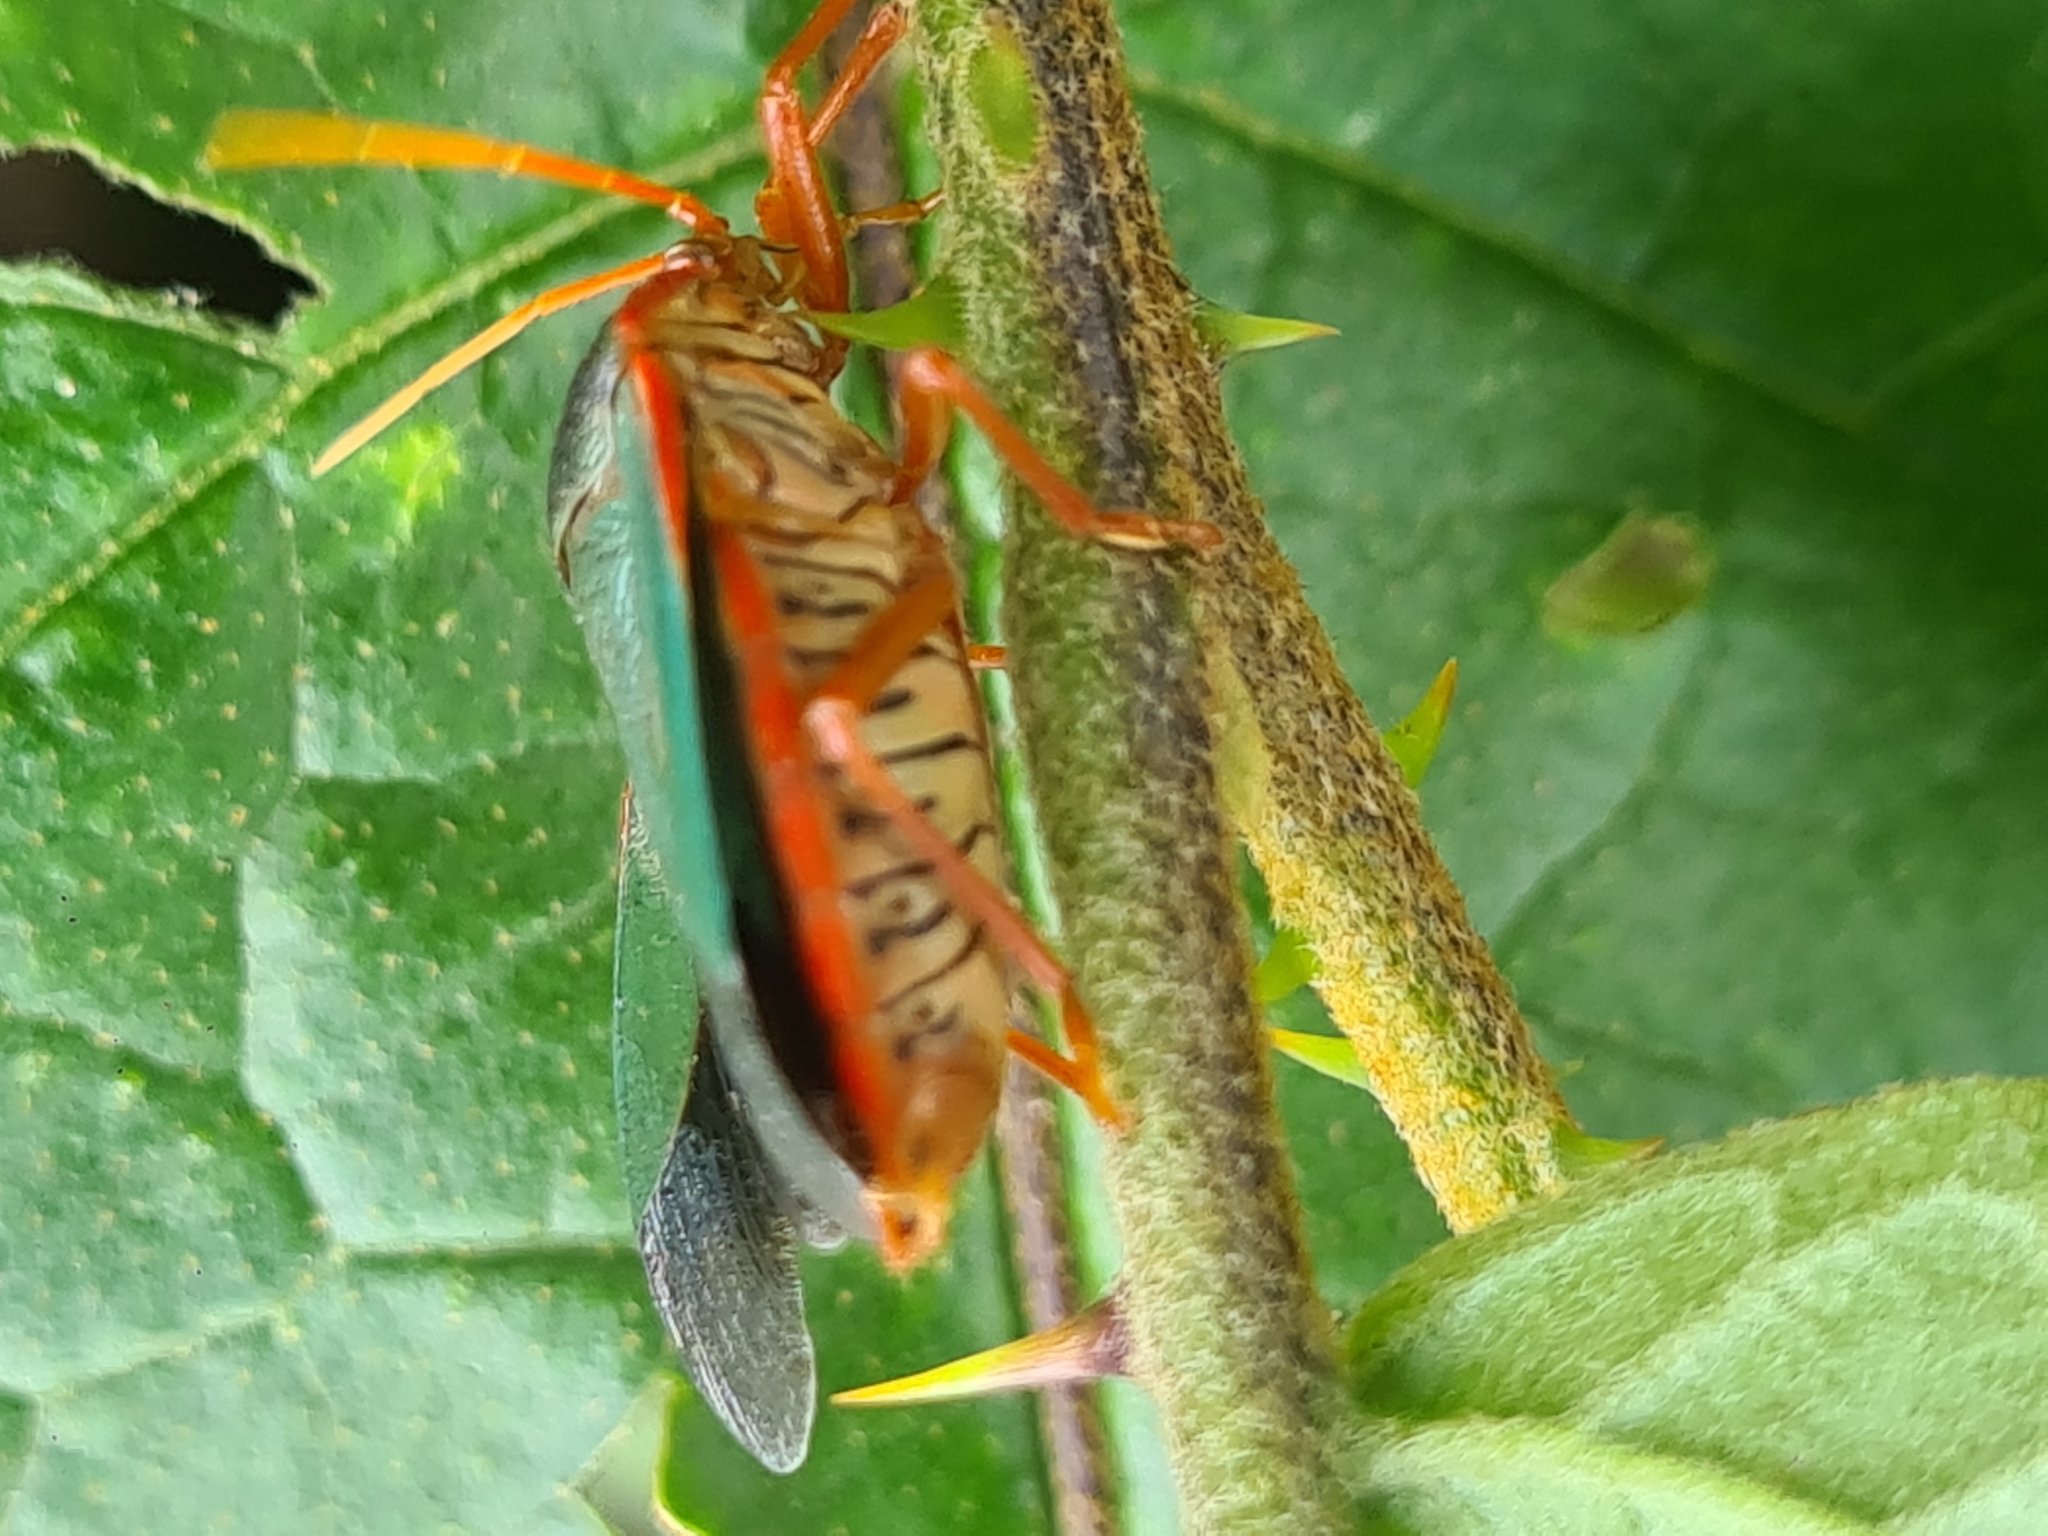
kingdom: Animalia
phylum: Arthropoda
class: Insecta
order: Hemiptera
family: Pentatomidae
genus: Edessa
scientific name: Edessa rufomarginata
